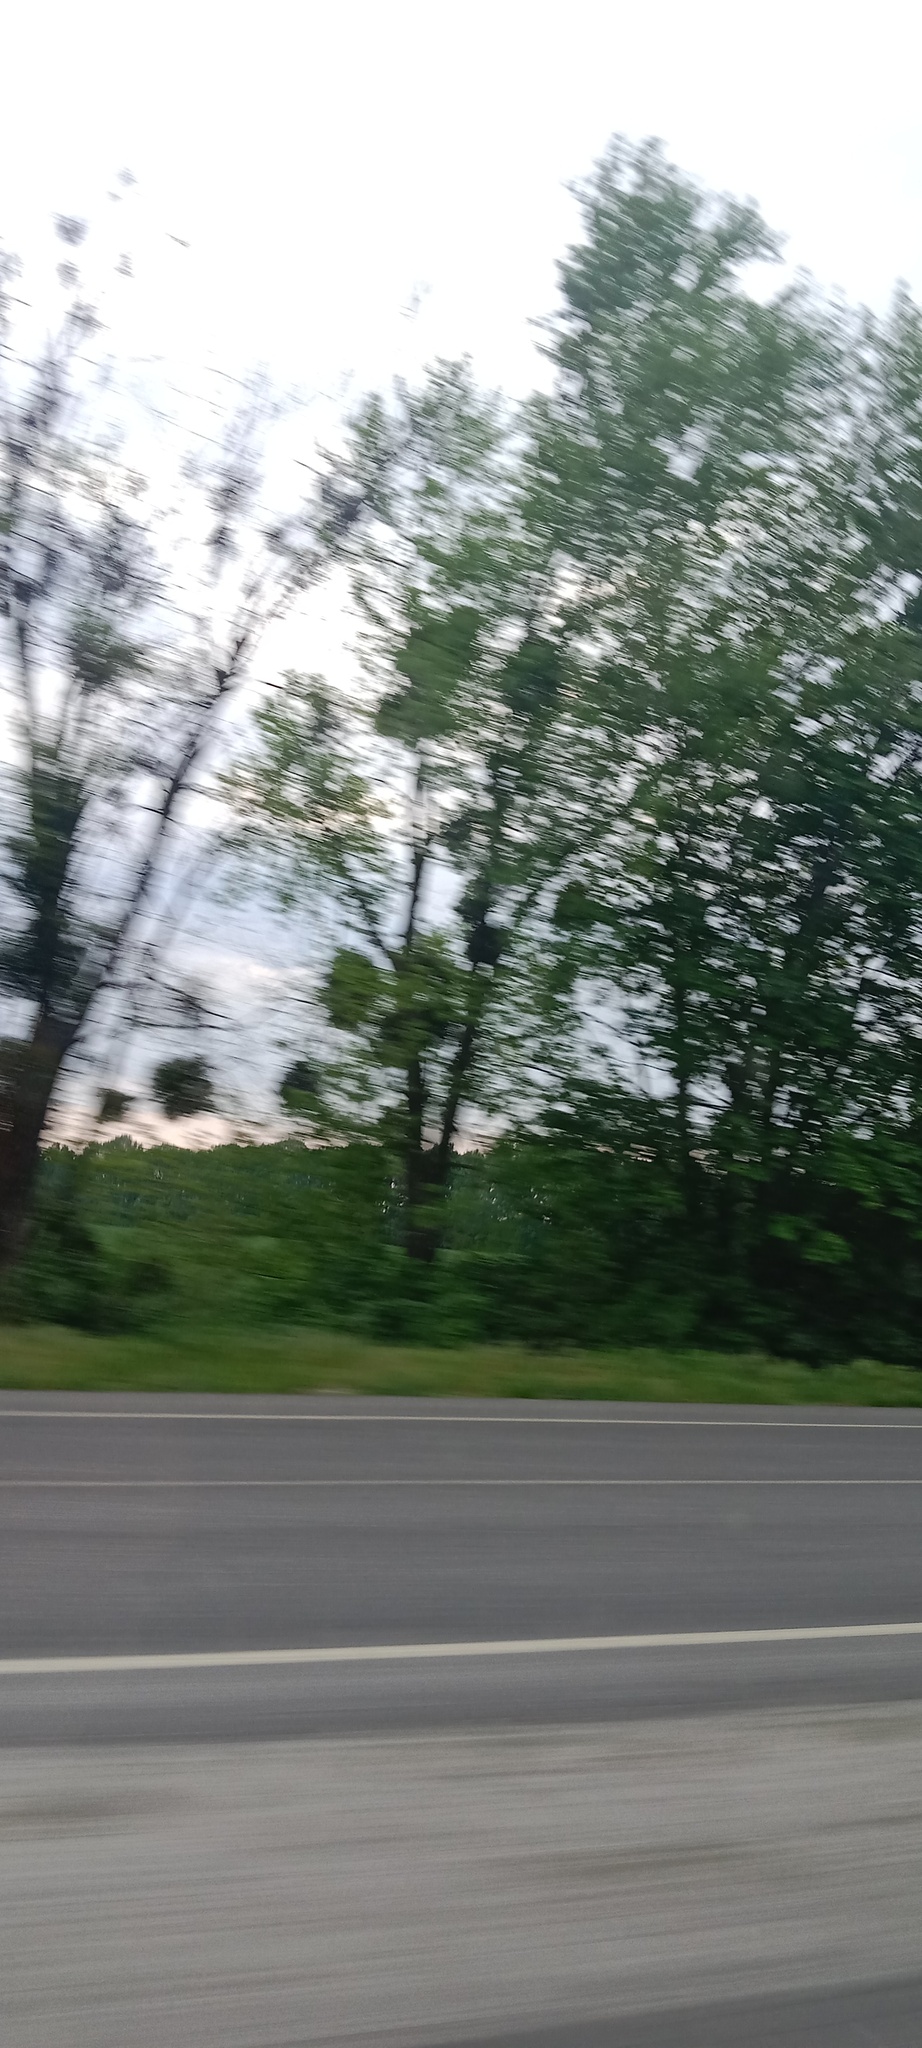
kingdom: Plantae
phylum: Tracheophyta
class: Magnoliopsida
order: Santalales
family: Viscaceae
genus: Viscum
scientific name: Viscum album
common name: Mistletoe
